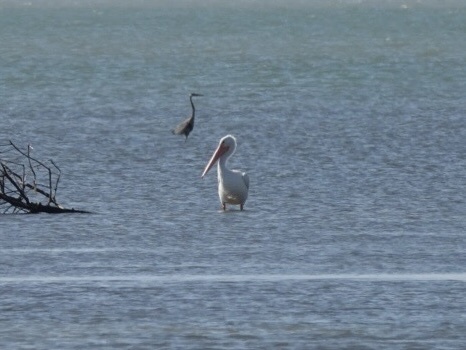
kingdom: Animalia
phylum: Chordata
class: Aves
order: Pelecaniformes
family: Pelecanidae
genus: Pelecanus
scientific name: Pelecanus erythrorhynchos
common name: American white pelican
